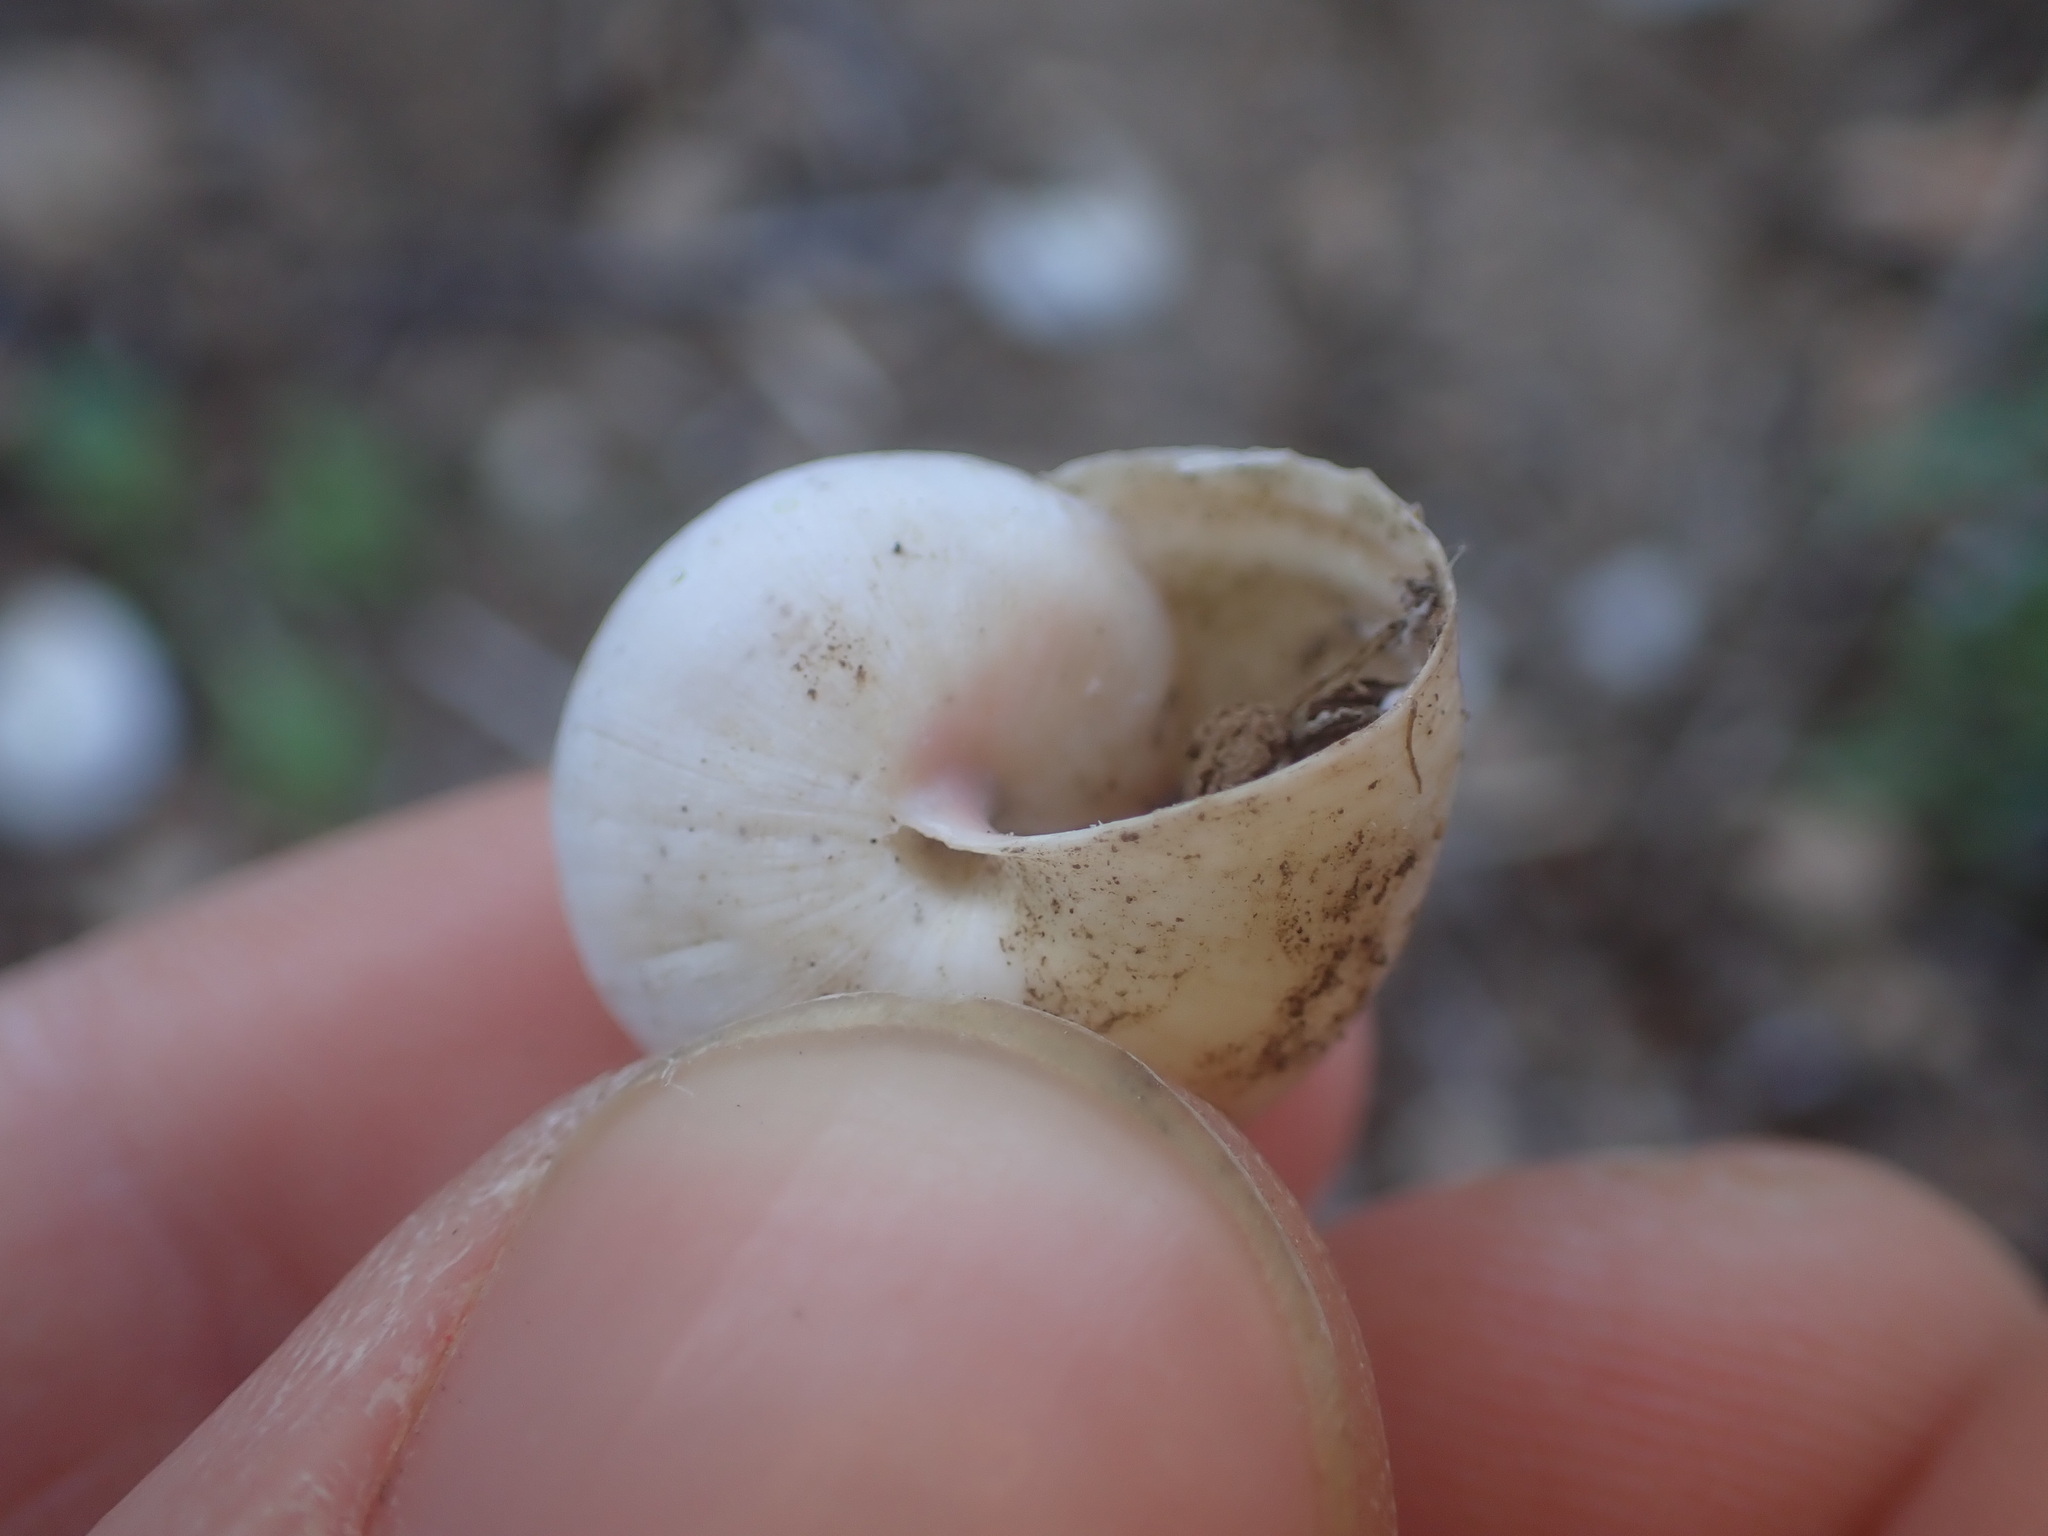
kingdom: Animalia
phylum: Mollusca
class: Gastropoda
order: Stylommatophora
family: Helicidae
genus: Theba
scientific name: Theba pisana
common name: White snail
